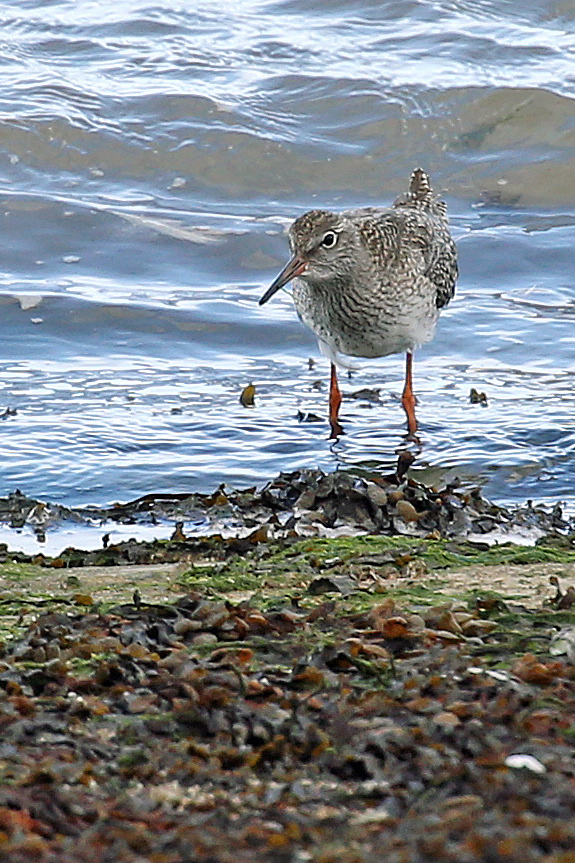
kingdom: Animalia
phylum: Chordata
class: Aves
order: Charadriiformes
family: Scolopacidae
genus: Tringa
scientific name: Tringa totanus
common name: Common redshank
